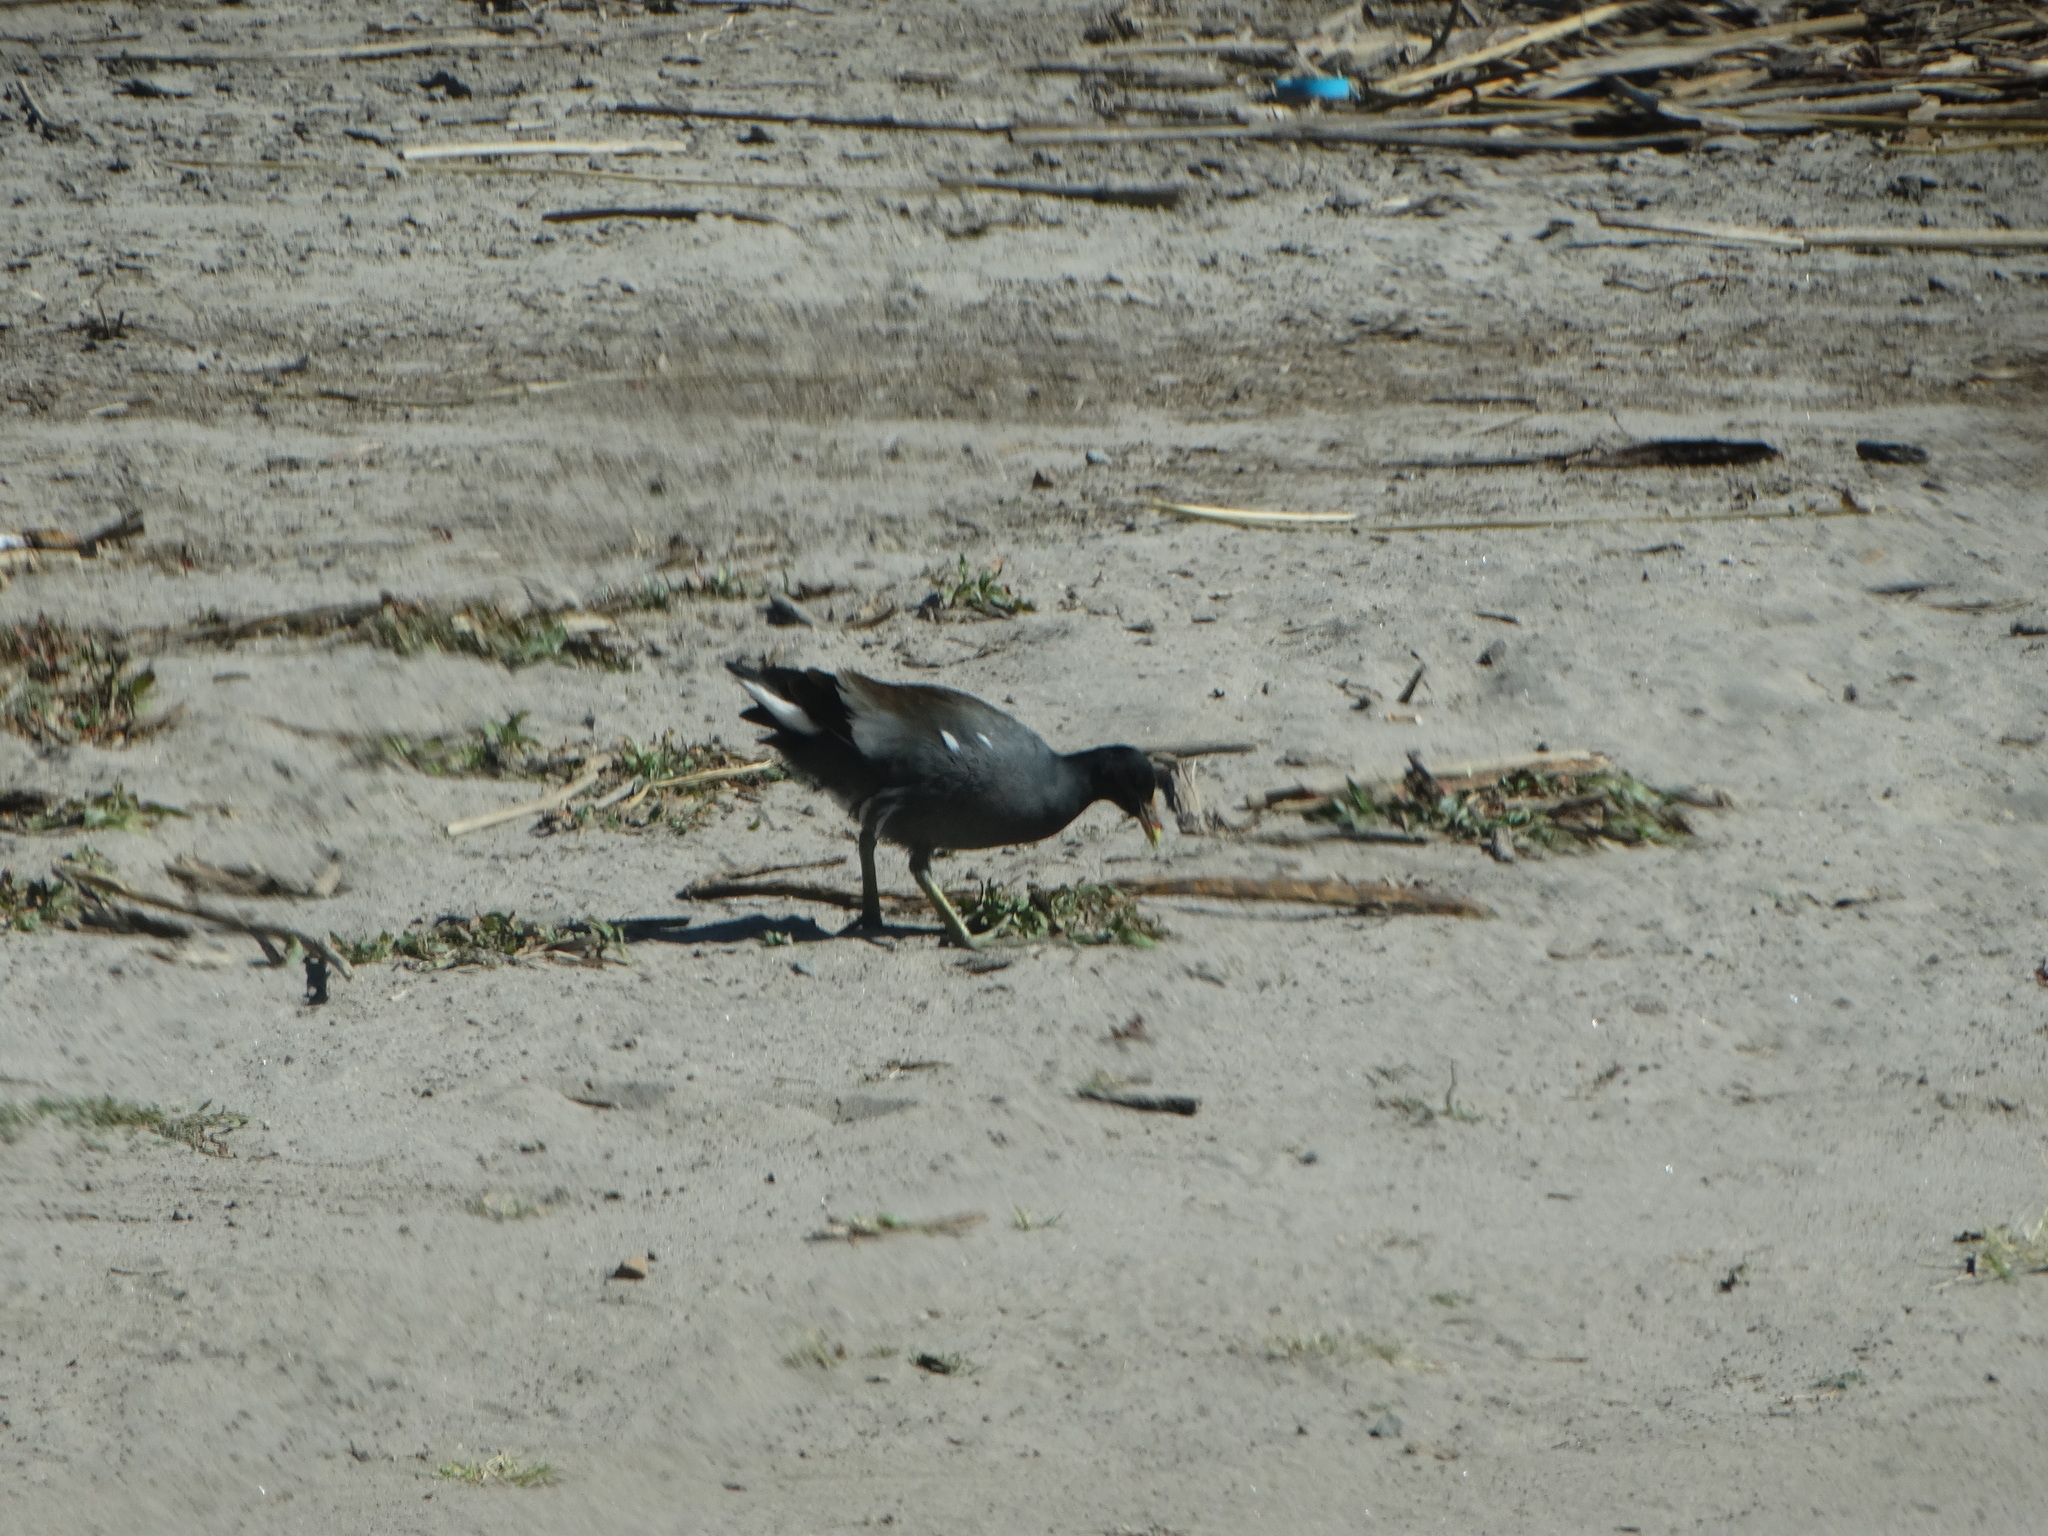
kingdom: Animalia
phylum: Chordata
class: Aves
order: Gruiformes
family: Rallidae
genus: Gallinula
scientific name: Gallinula chloropus
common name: Common moorhen
